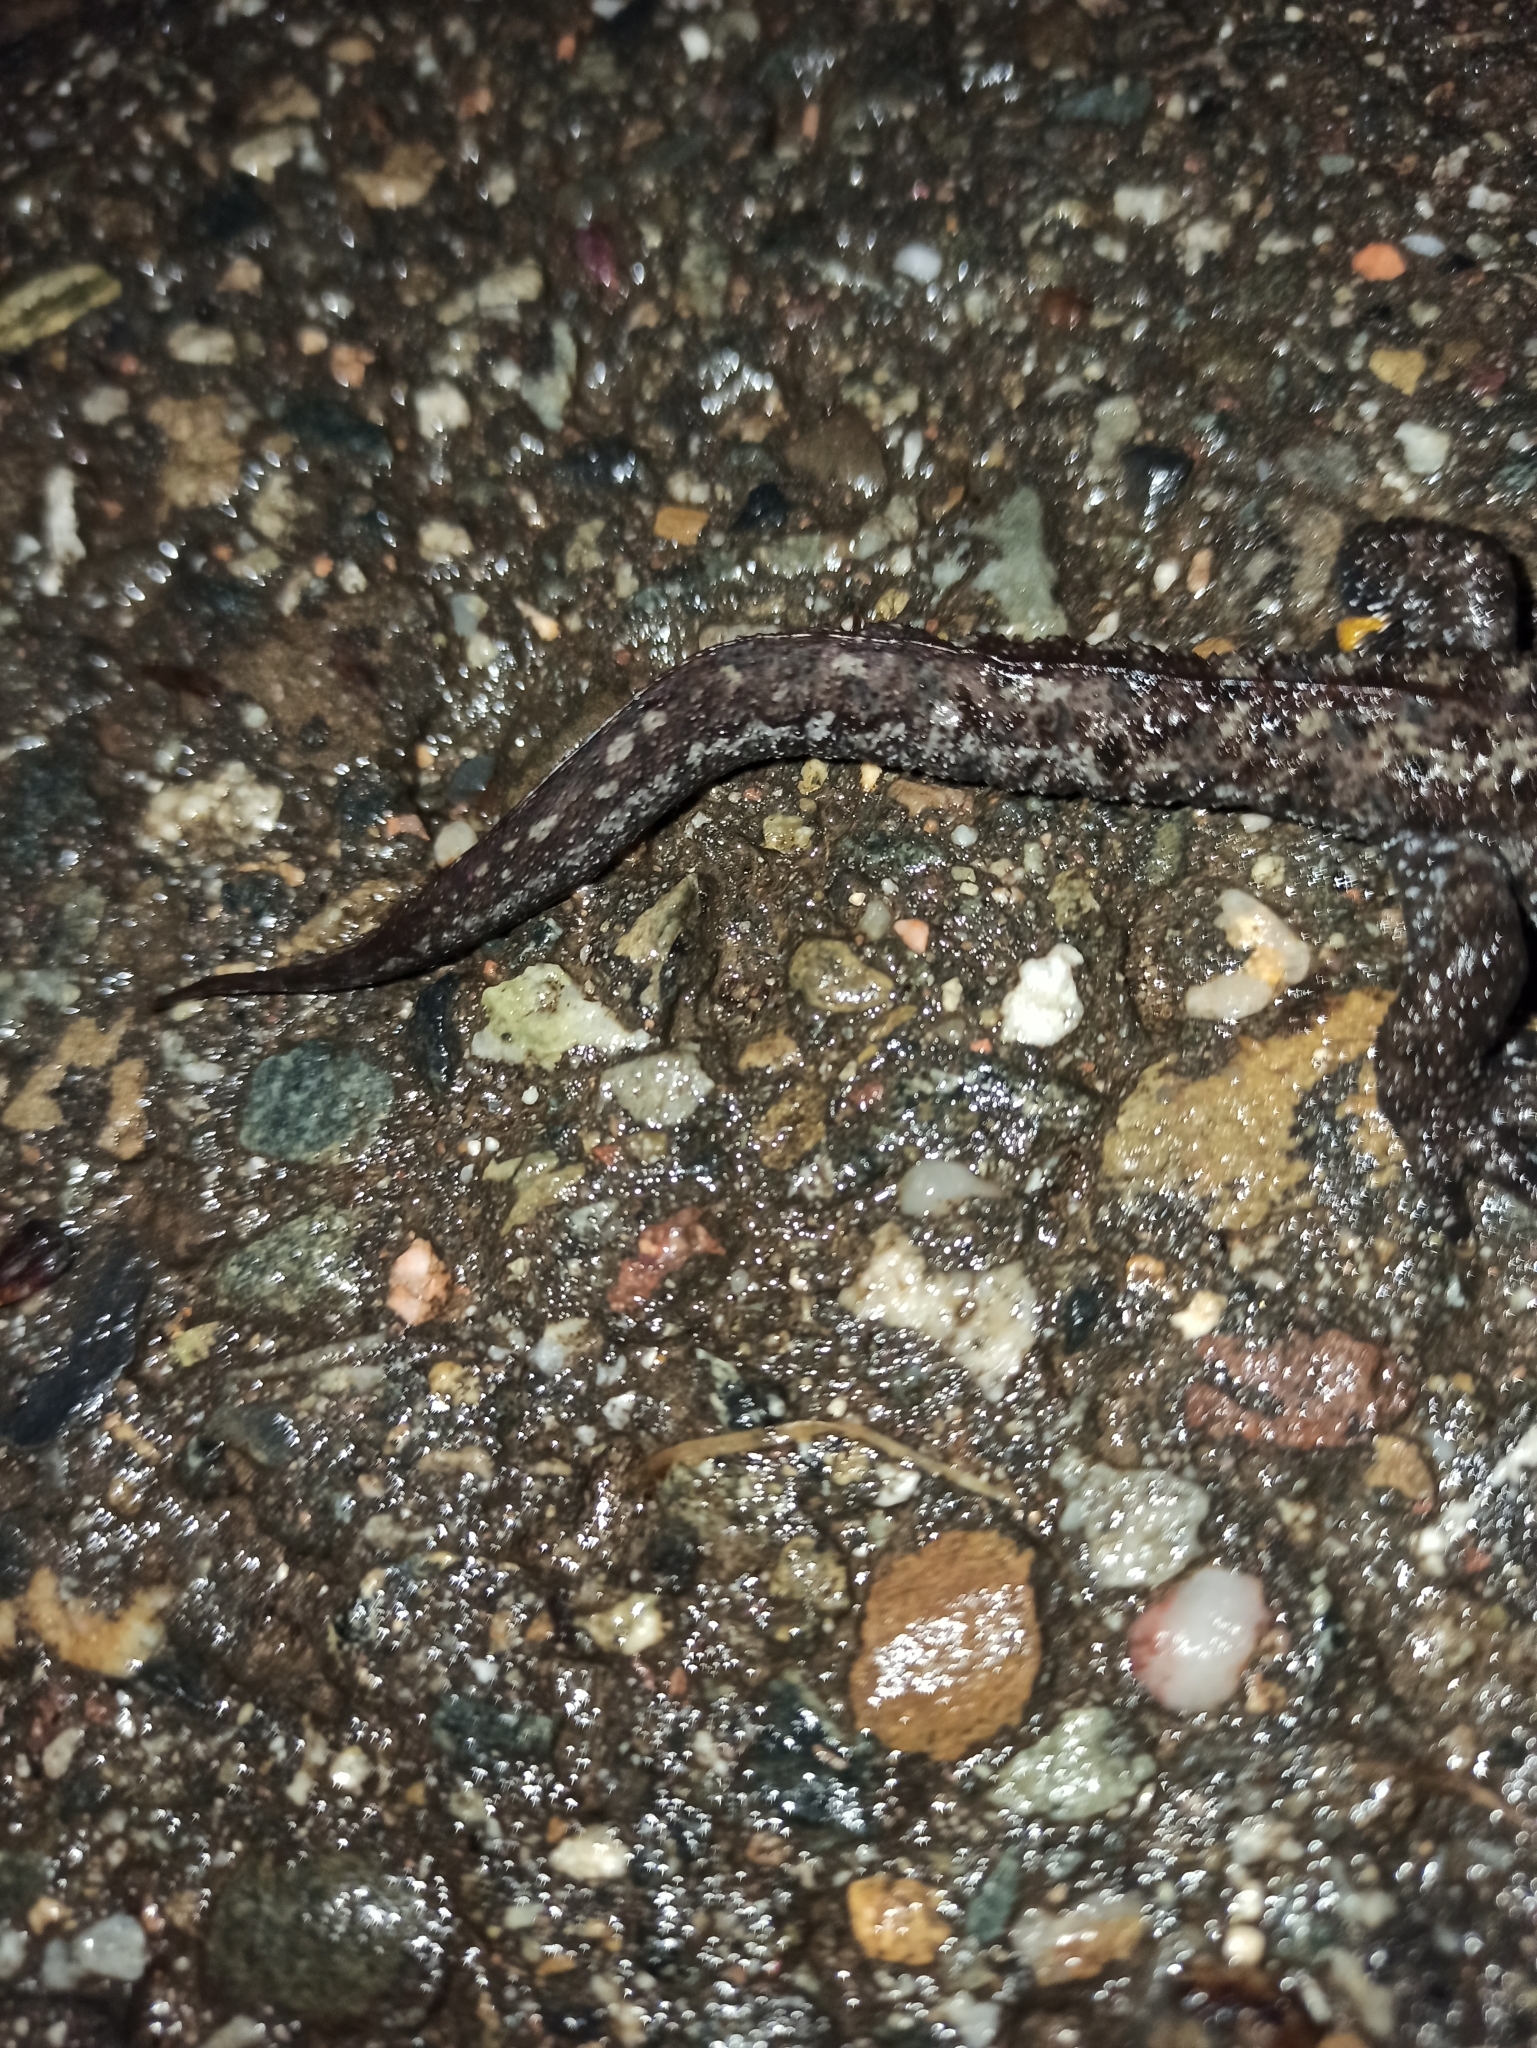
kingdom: Animalia
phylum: Chordata
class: Amphibia
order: Caudata
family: Salamandridae
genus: Triturus
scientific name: Triturus karelinii
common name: Southern crested newt
